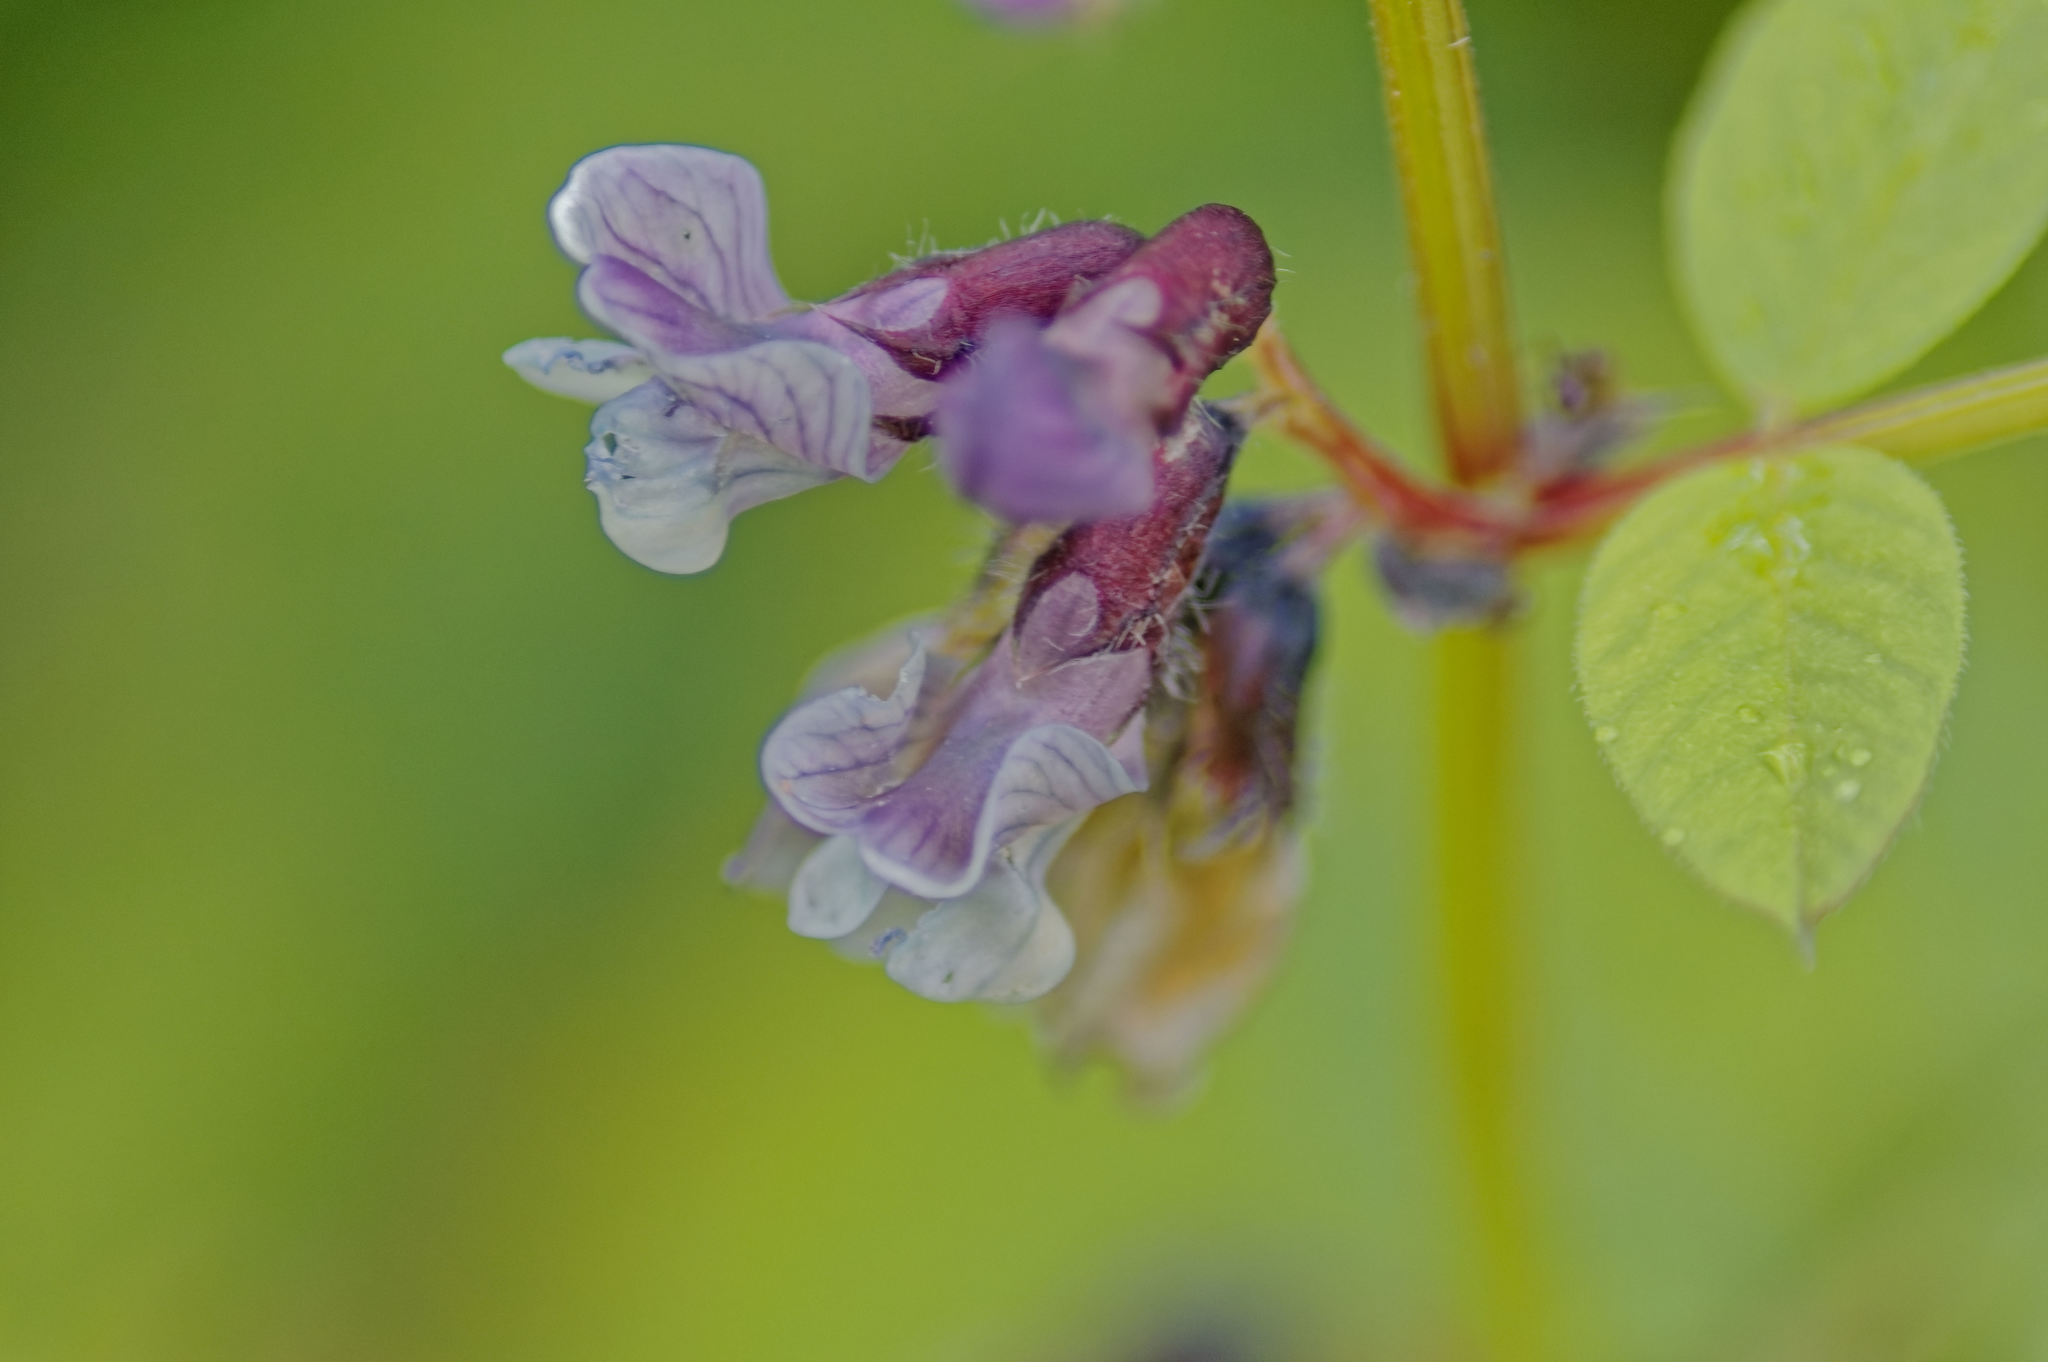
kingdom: Plantae
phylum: Tracheophyta
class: Magnoliopsida
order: Fabales
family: Fabaceae
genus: Vicia
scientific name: Vicia sepium
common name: Bush vetch
